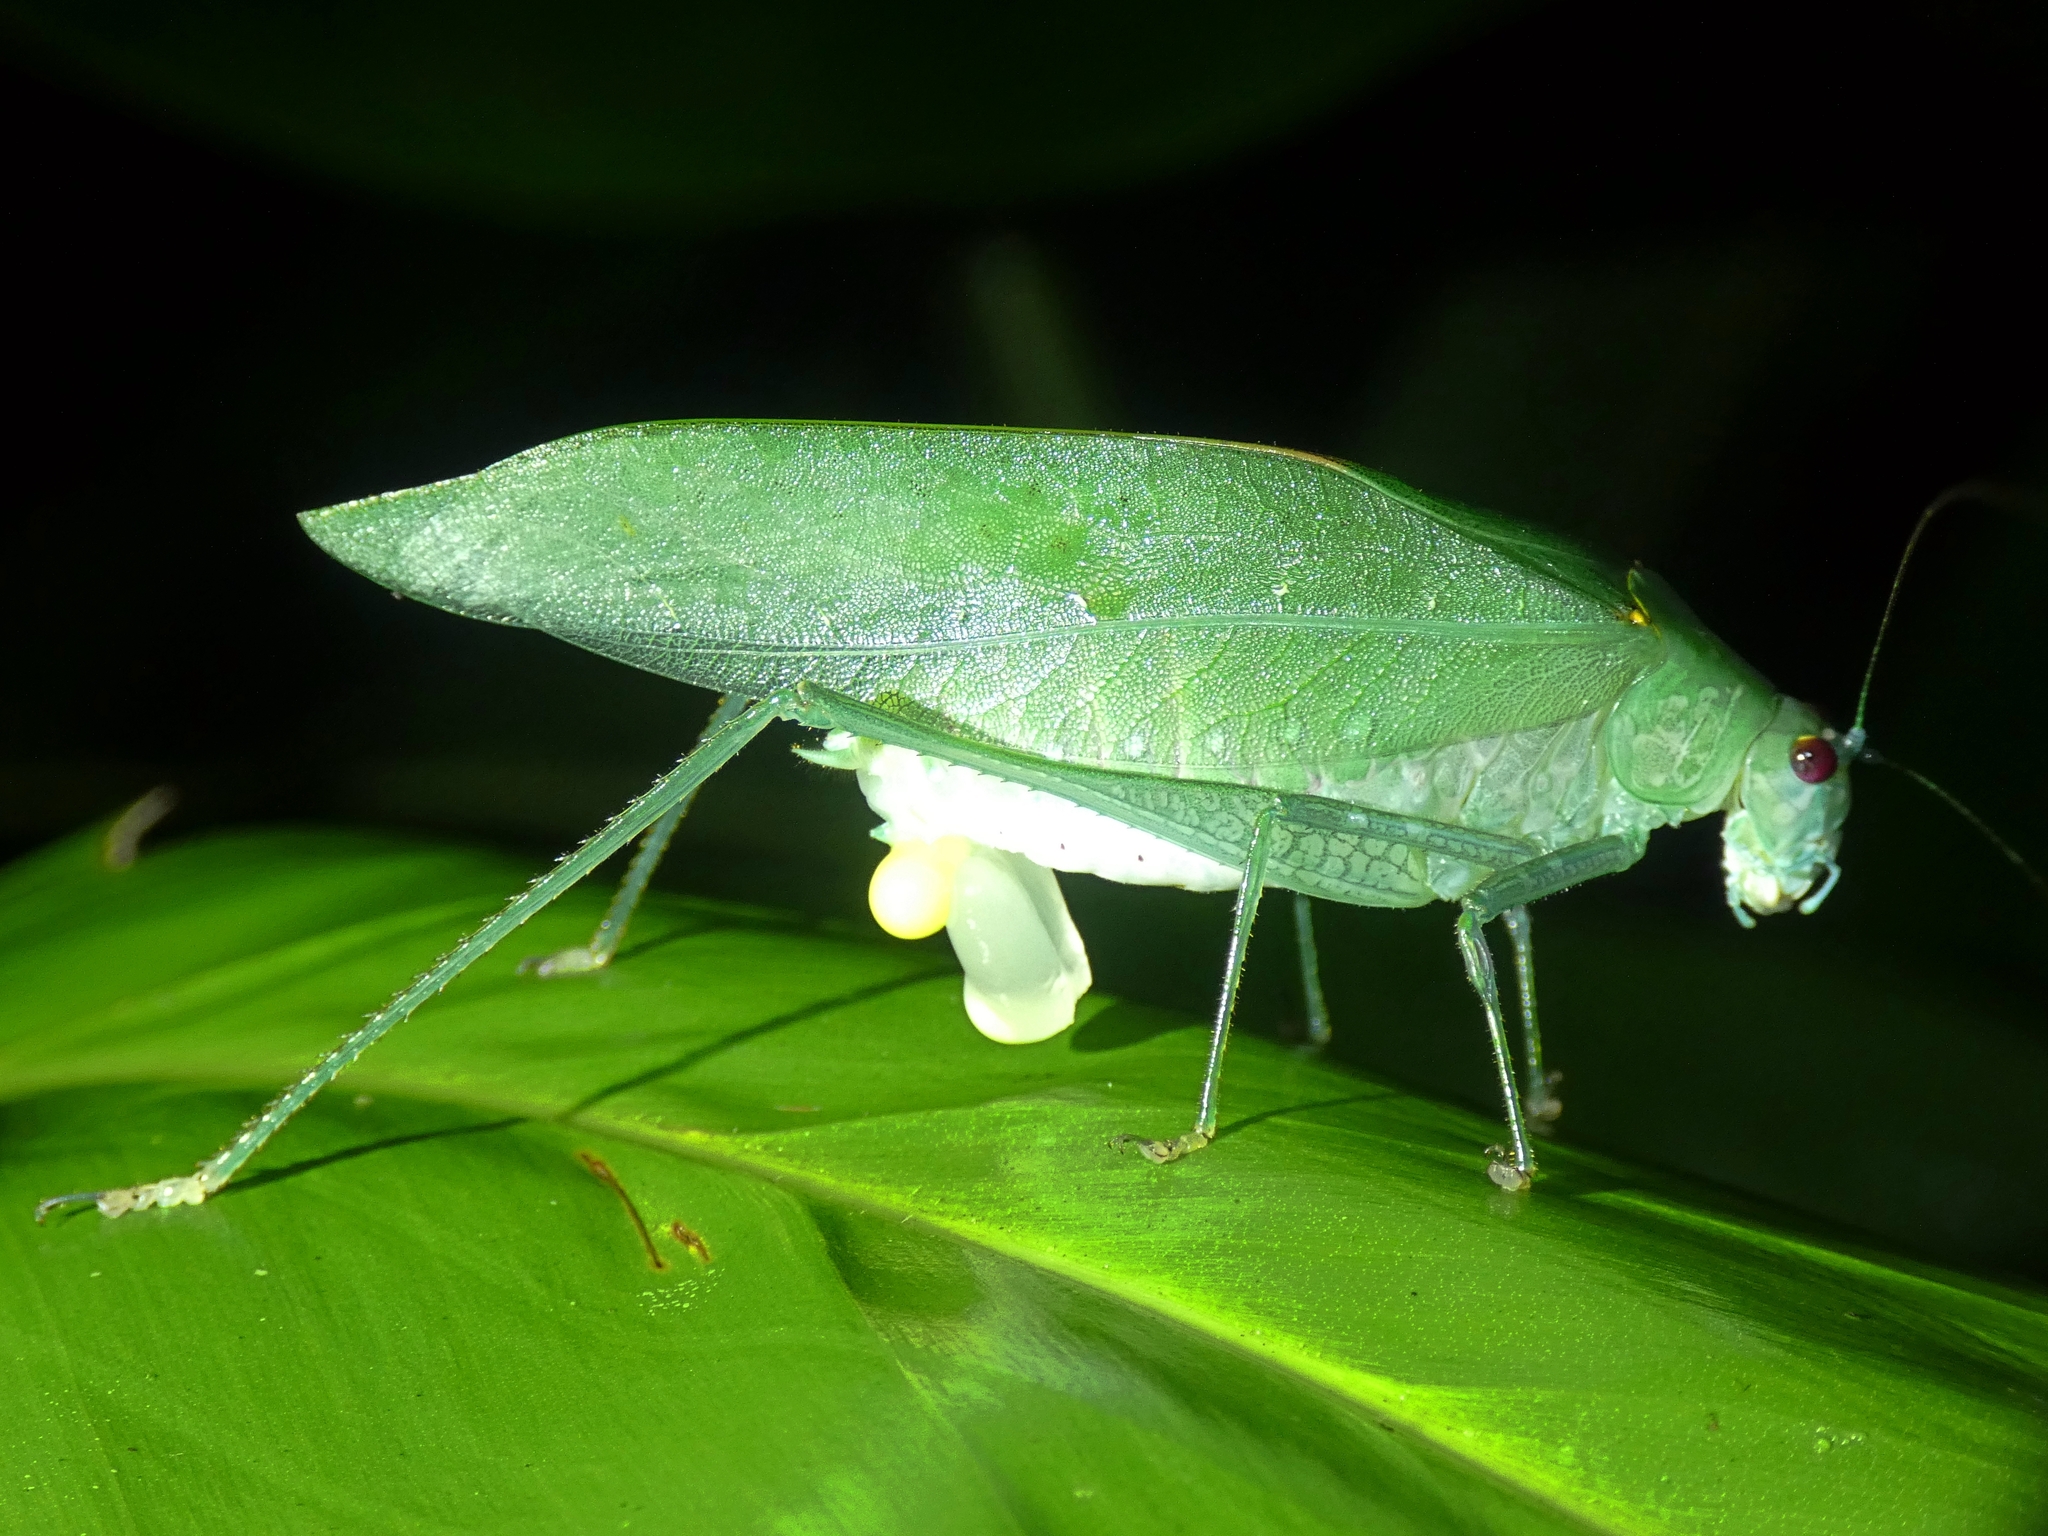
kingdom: Animalia
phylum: Arthropoda
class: Insecta
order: Orthoptera
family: Tettigoniidae
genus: Caedicia
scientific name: Caedicia webberi
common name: Webber's caedicia
